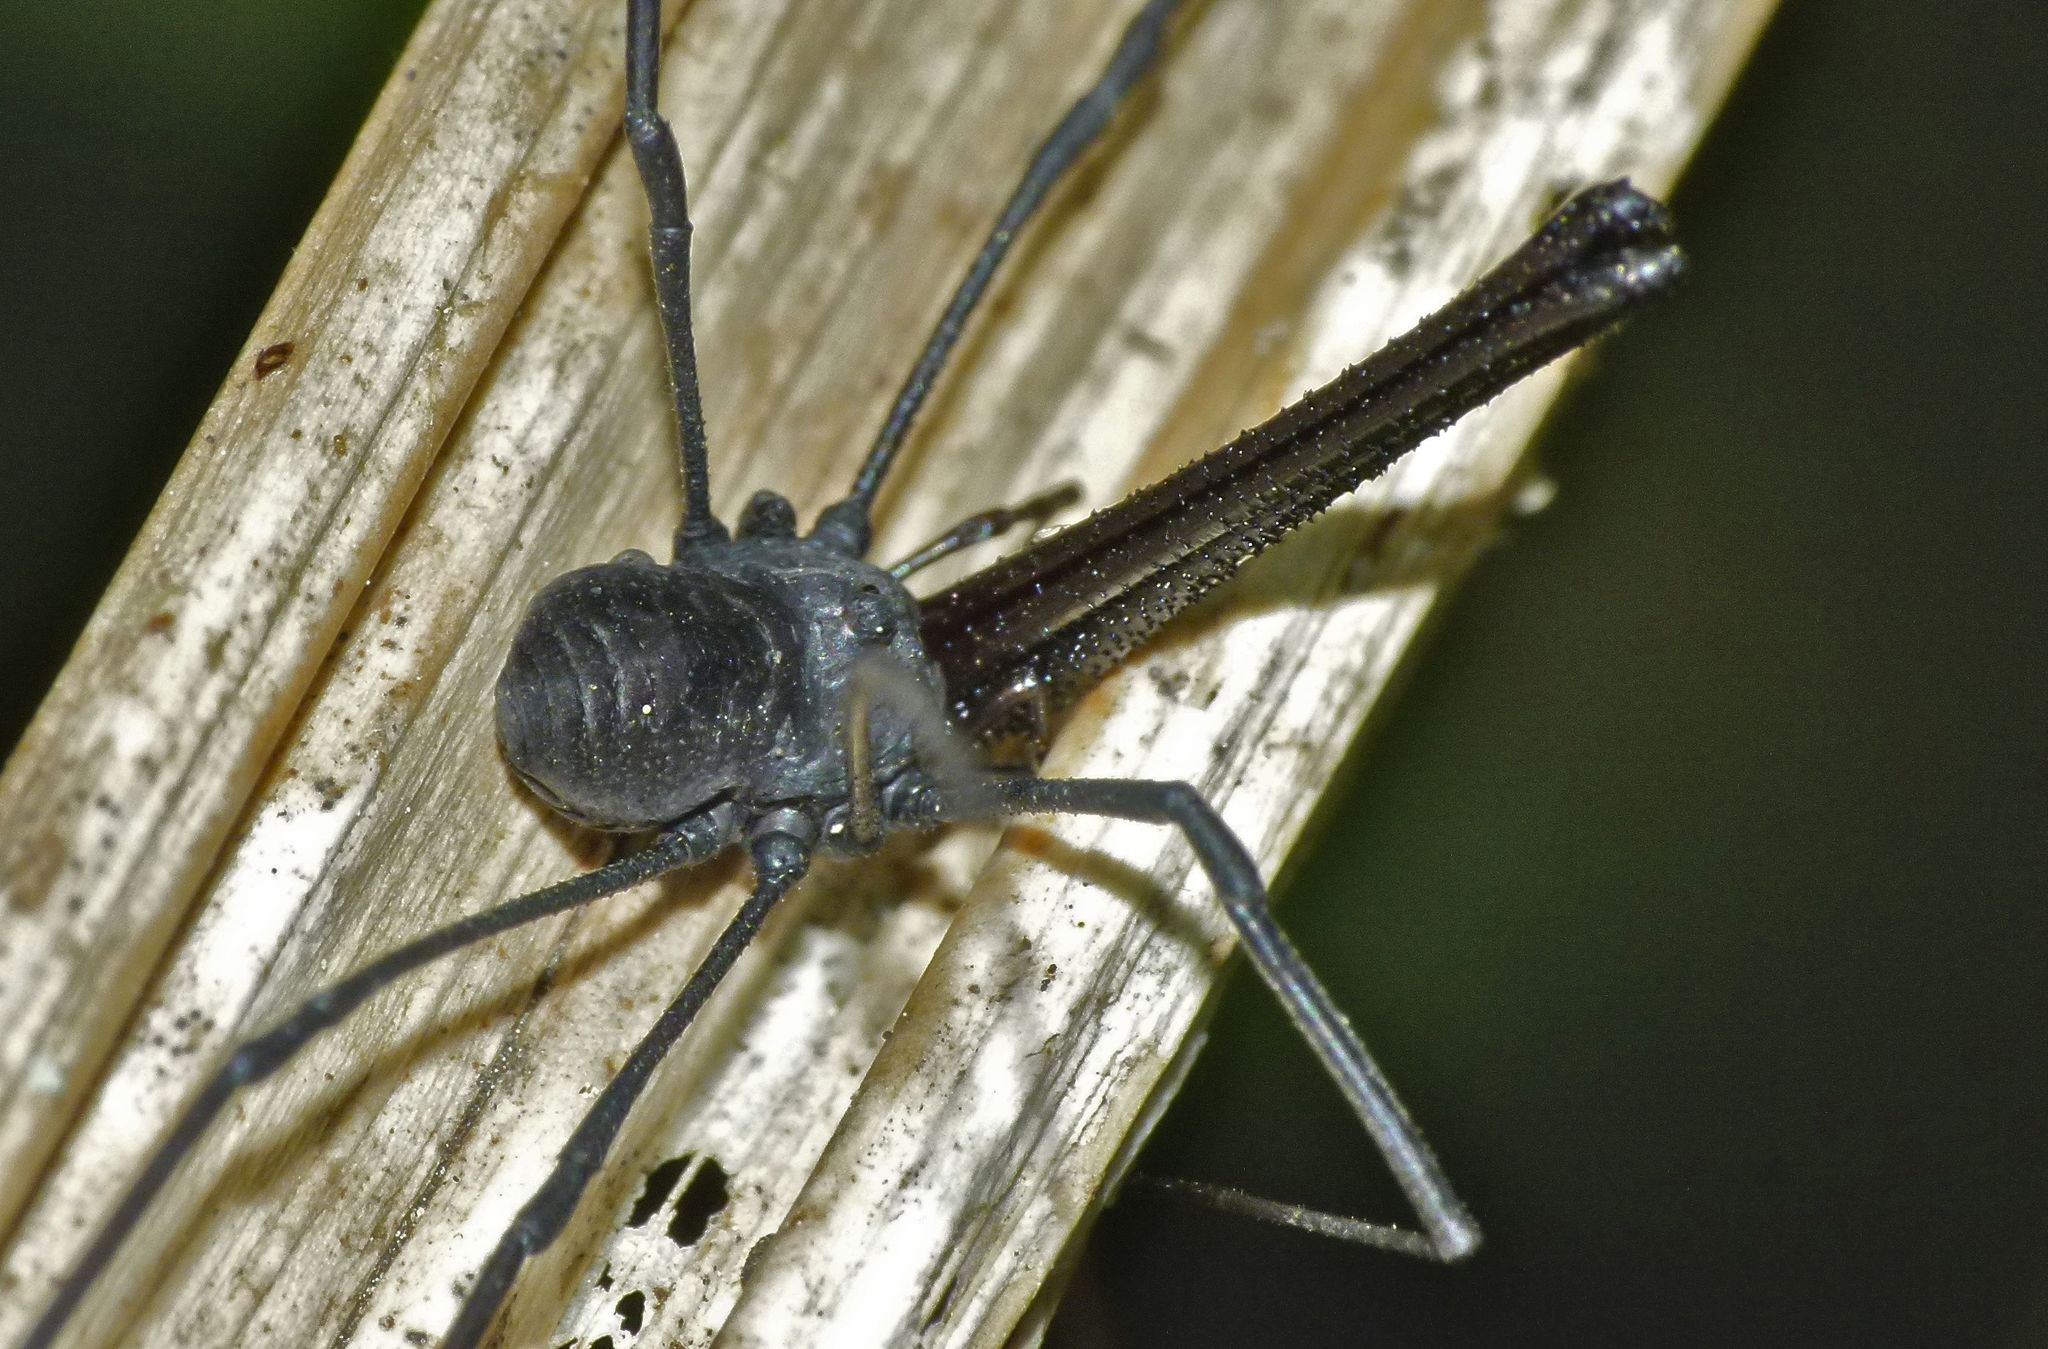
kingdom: Animalia
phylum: Arthropoda
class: Arachnida
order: Opiliones
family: Neopilionidae
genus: Pantopsalis
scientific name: Pantopsalis albipalpis
